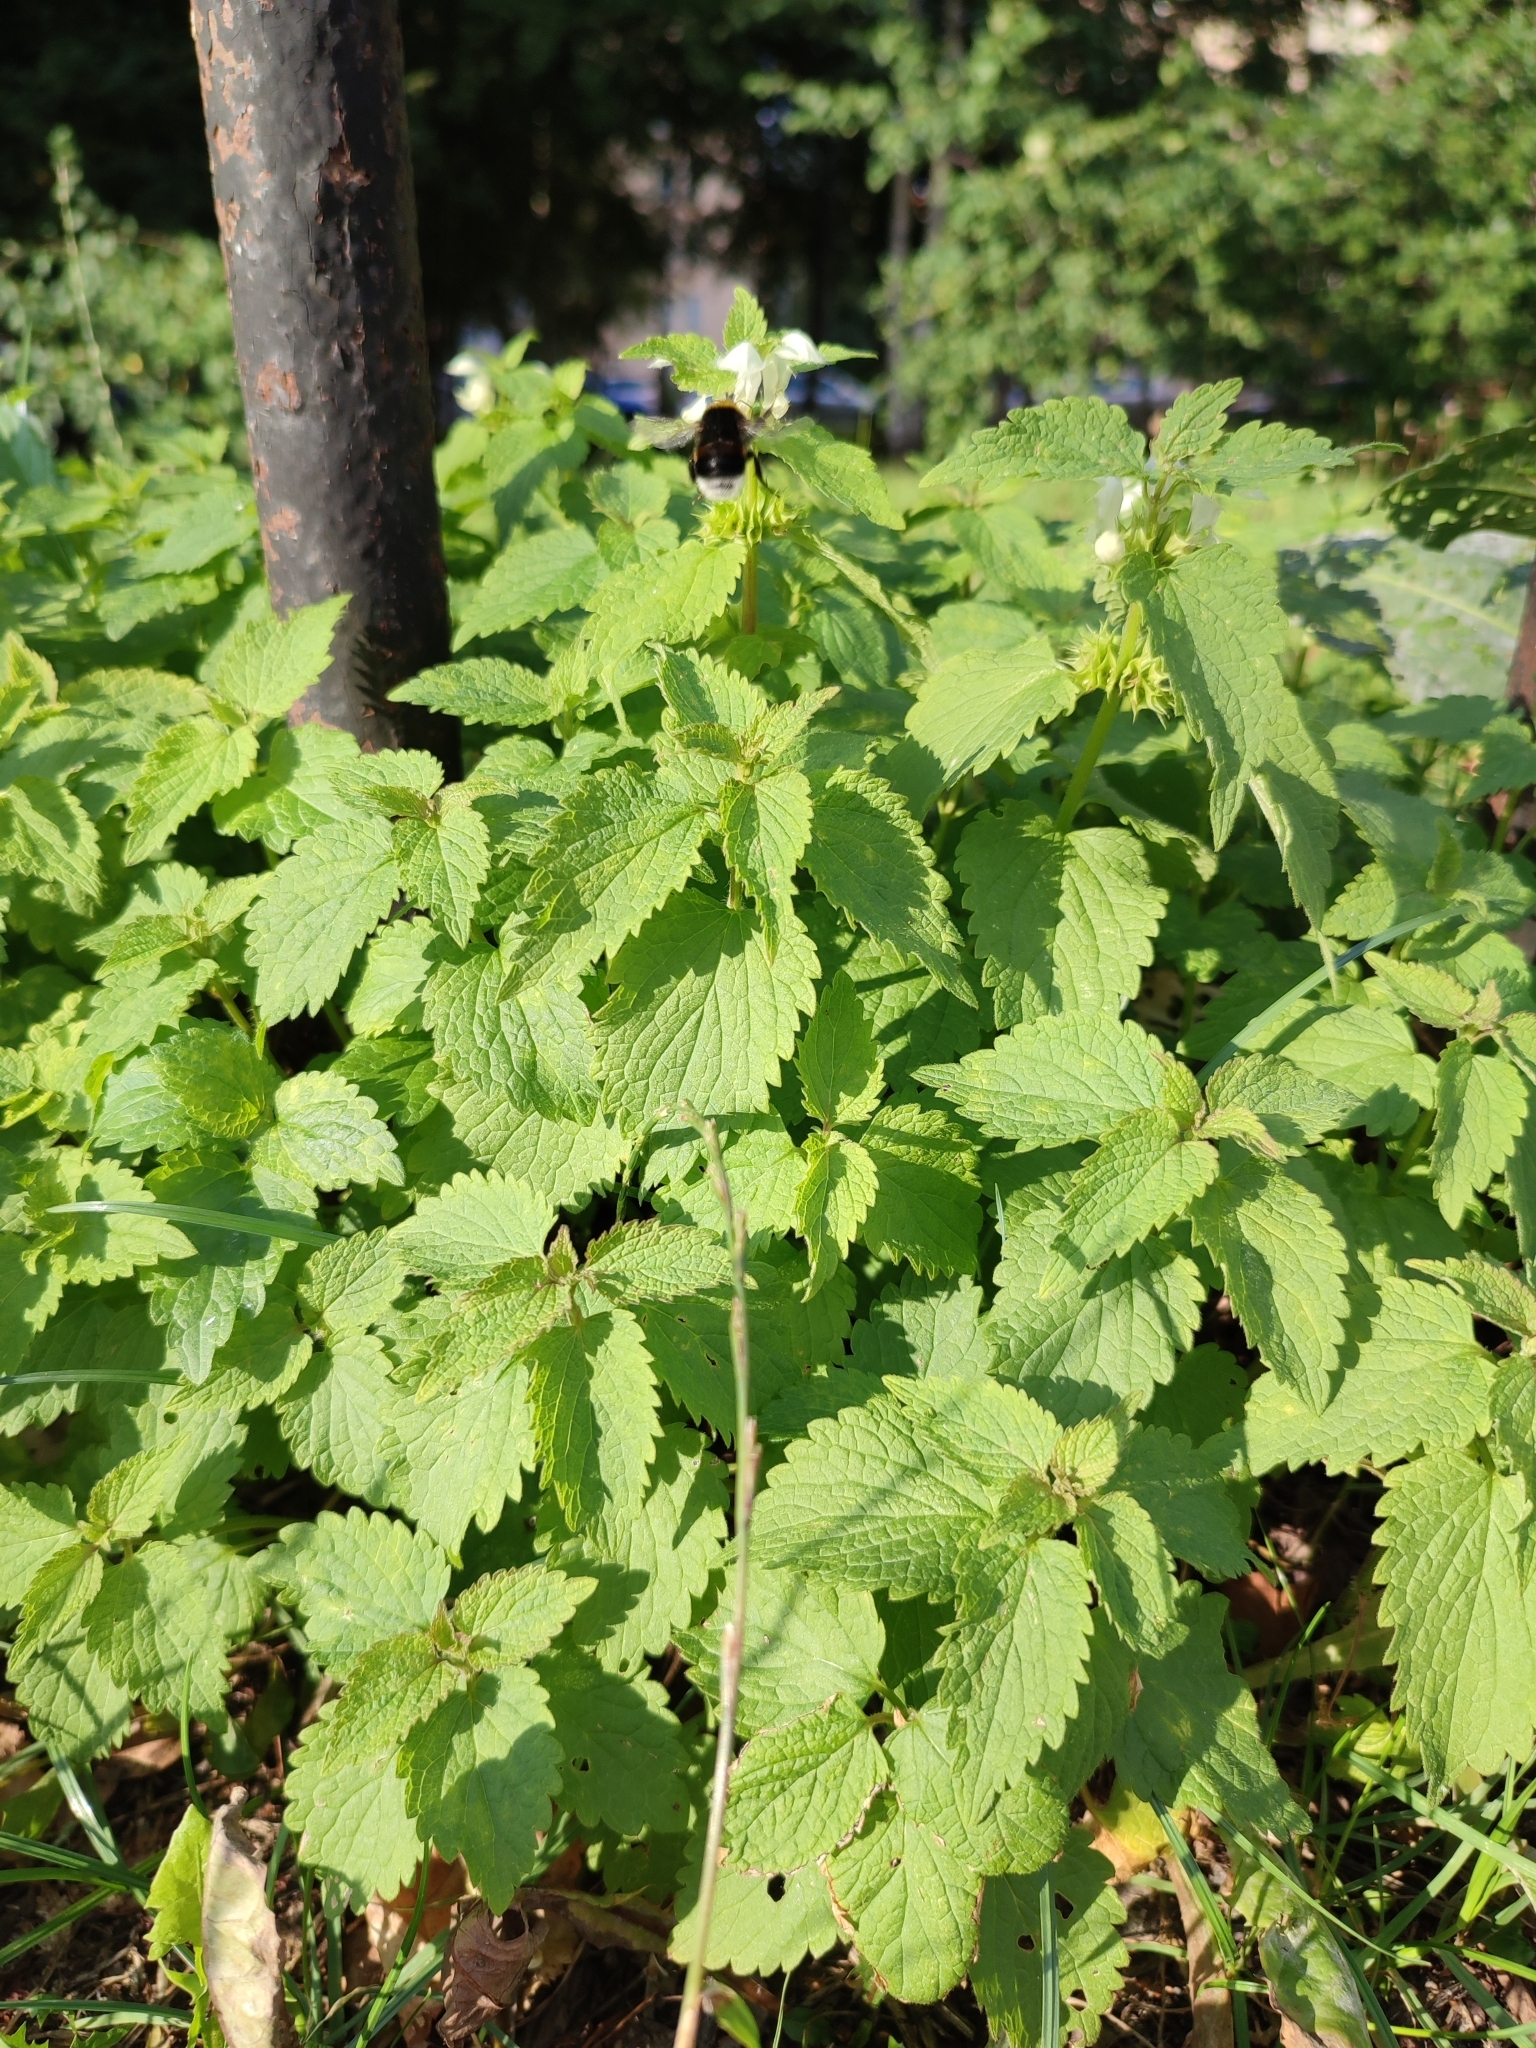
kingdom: Plantae
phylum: Tracheophyta
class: Magnoliopsida
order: Lamiales
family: Lamiaceae
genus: Lamium
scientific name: Lamium album
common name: White dead-nettle
